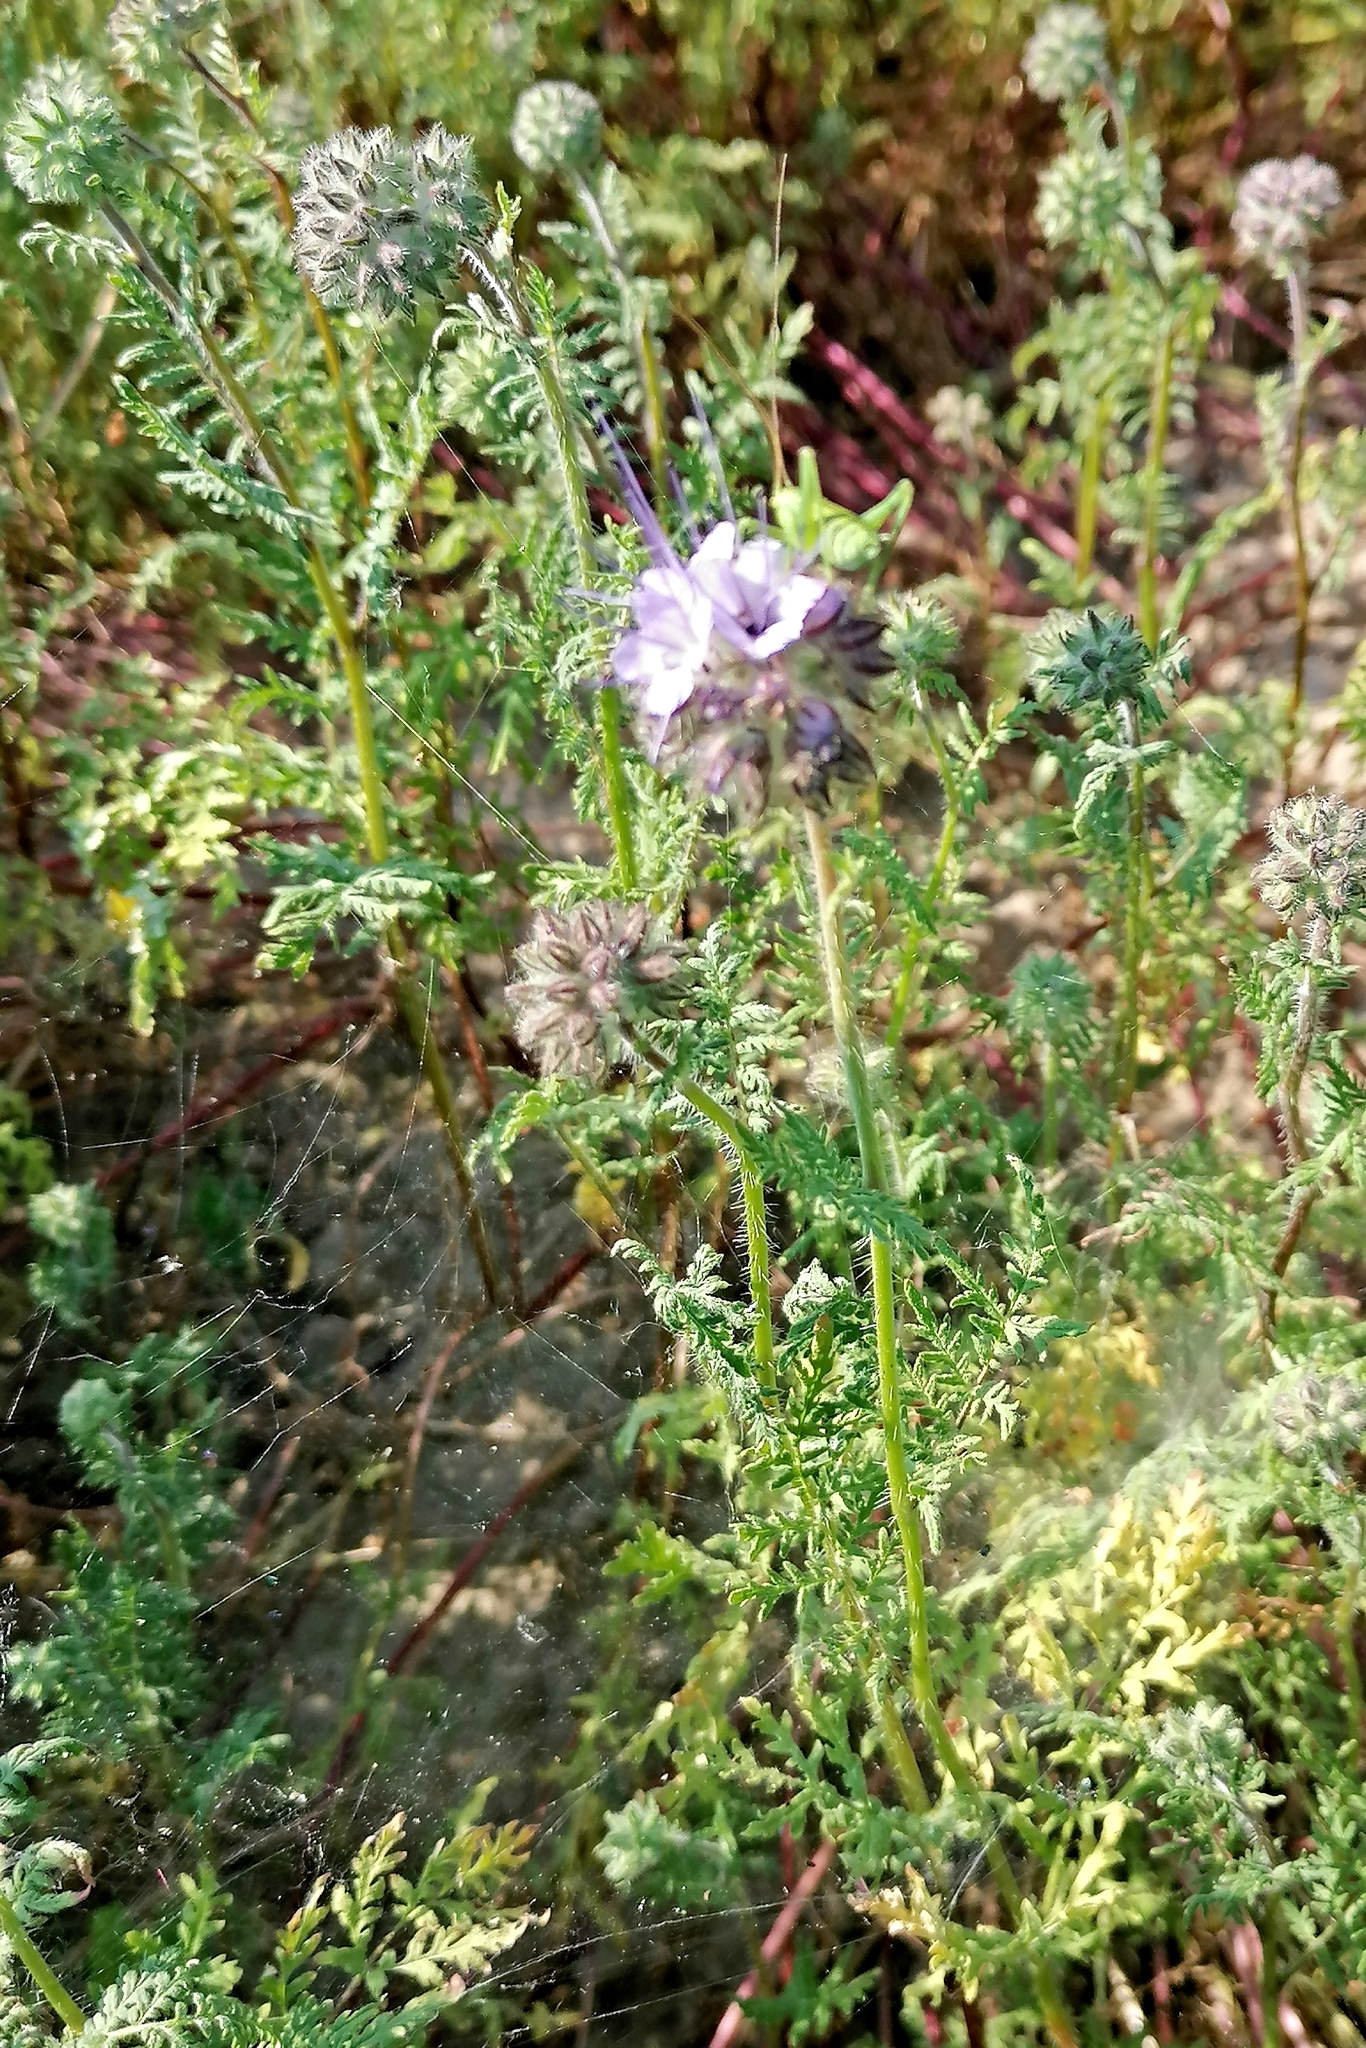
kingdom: Plantae
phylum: Tracheophyta
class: Magnoliopsida
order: Boraginales
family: Hydrophyllaceae
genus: Phacelia
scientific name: Phacelia tanacetifolia
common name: Phacelia
